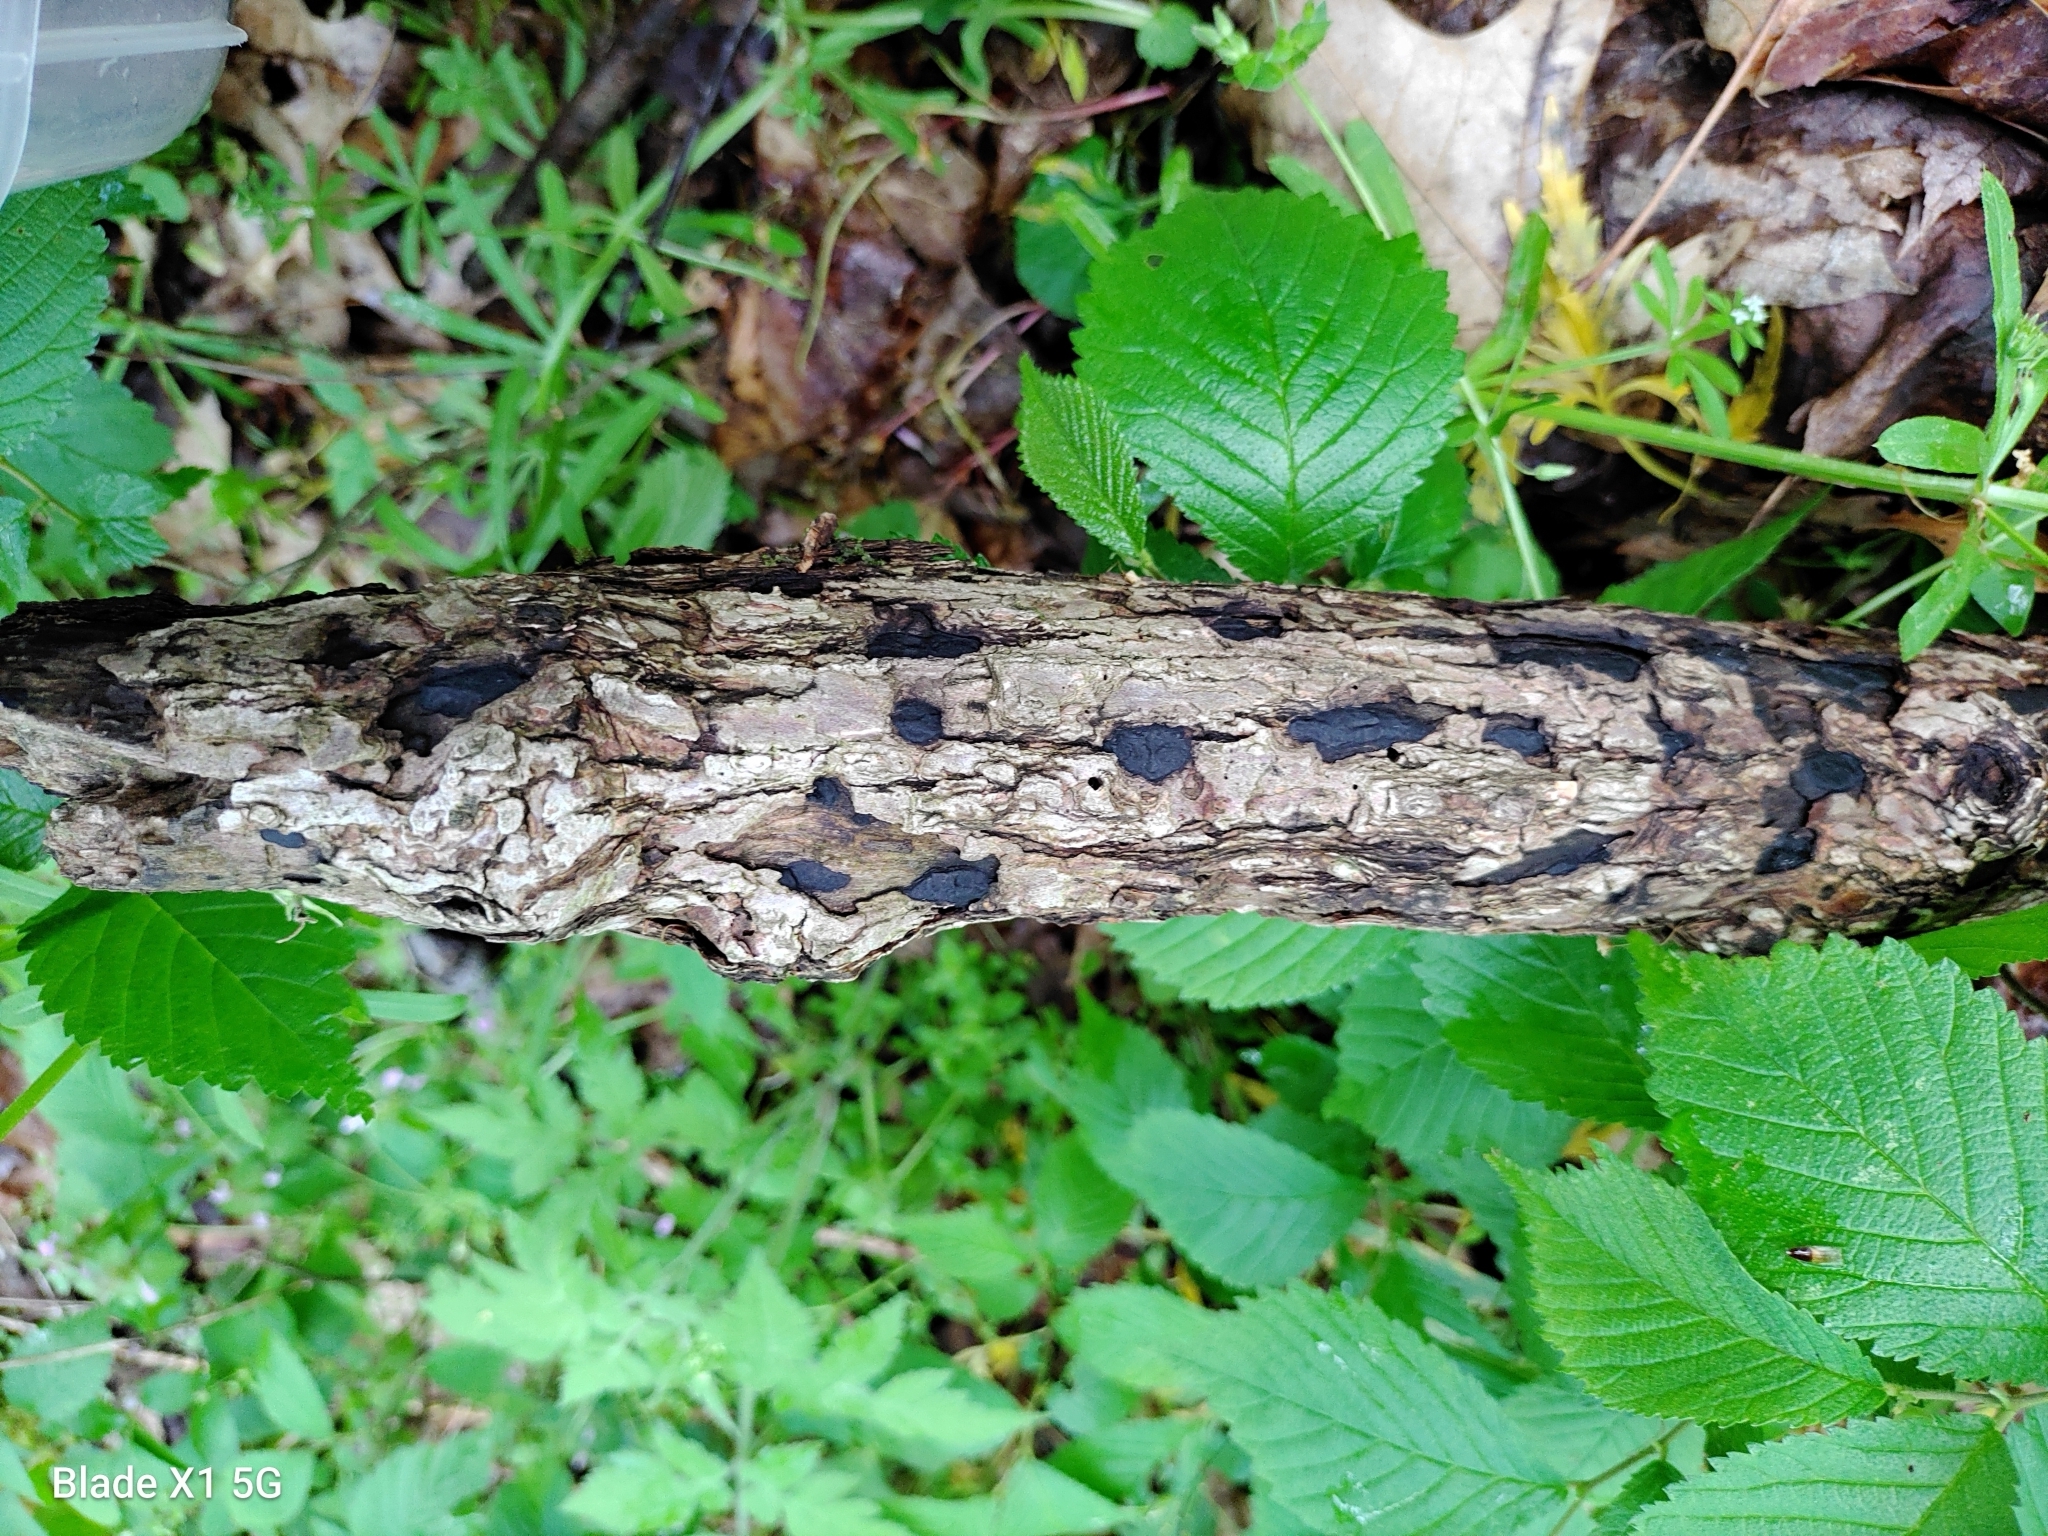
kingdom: Fungi
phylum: Ascomycota
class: Sordariomycetes
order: Xylariales
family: Xylariaceae
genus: Whalleya
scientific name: Whalleya microplaca
